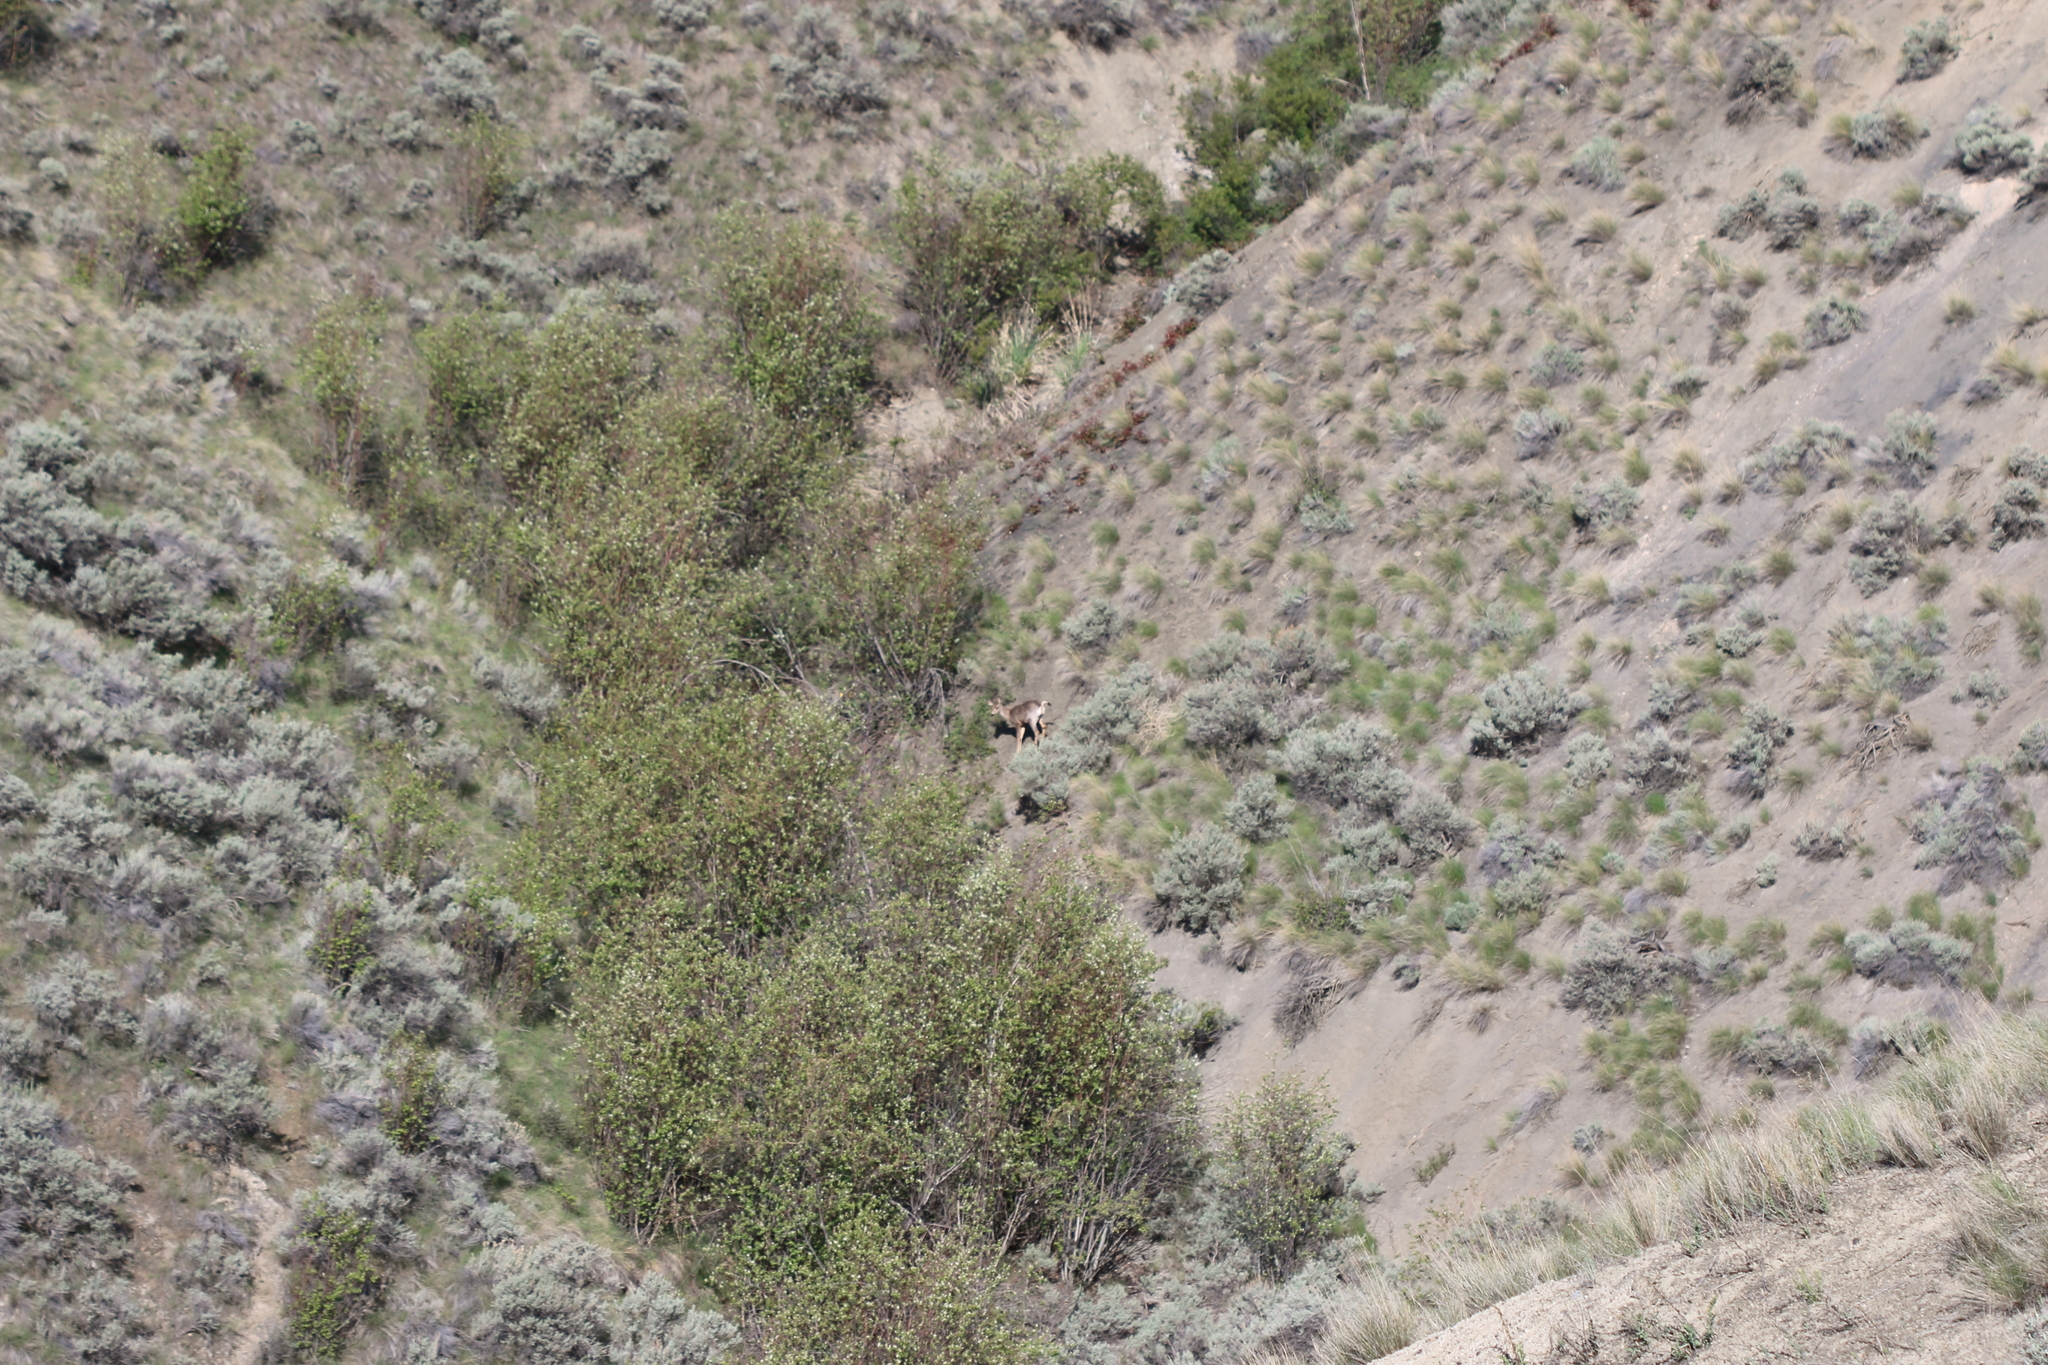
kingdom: Animalia
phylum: Chordata
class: Mammalia
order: Artiodactyla
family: Cervidae
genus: Odocoileus
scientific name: Odocoileus hemionus
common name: Mule deer
